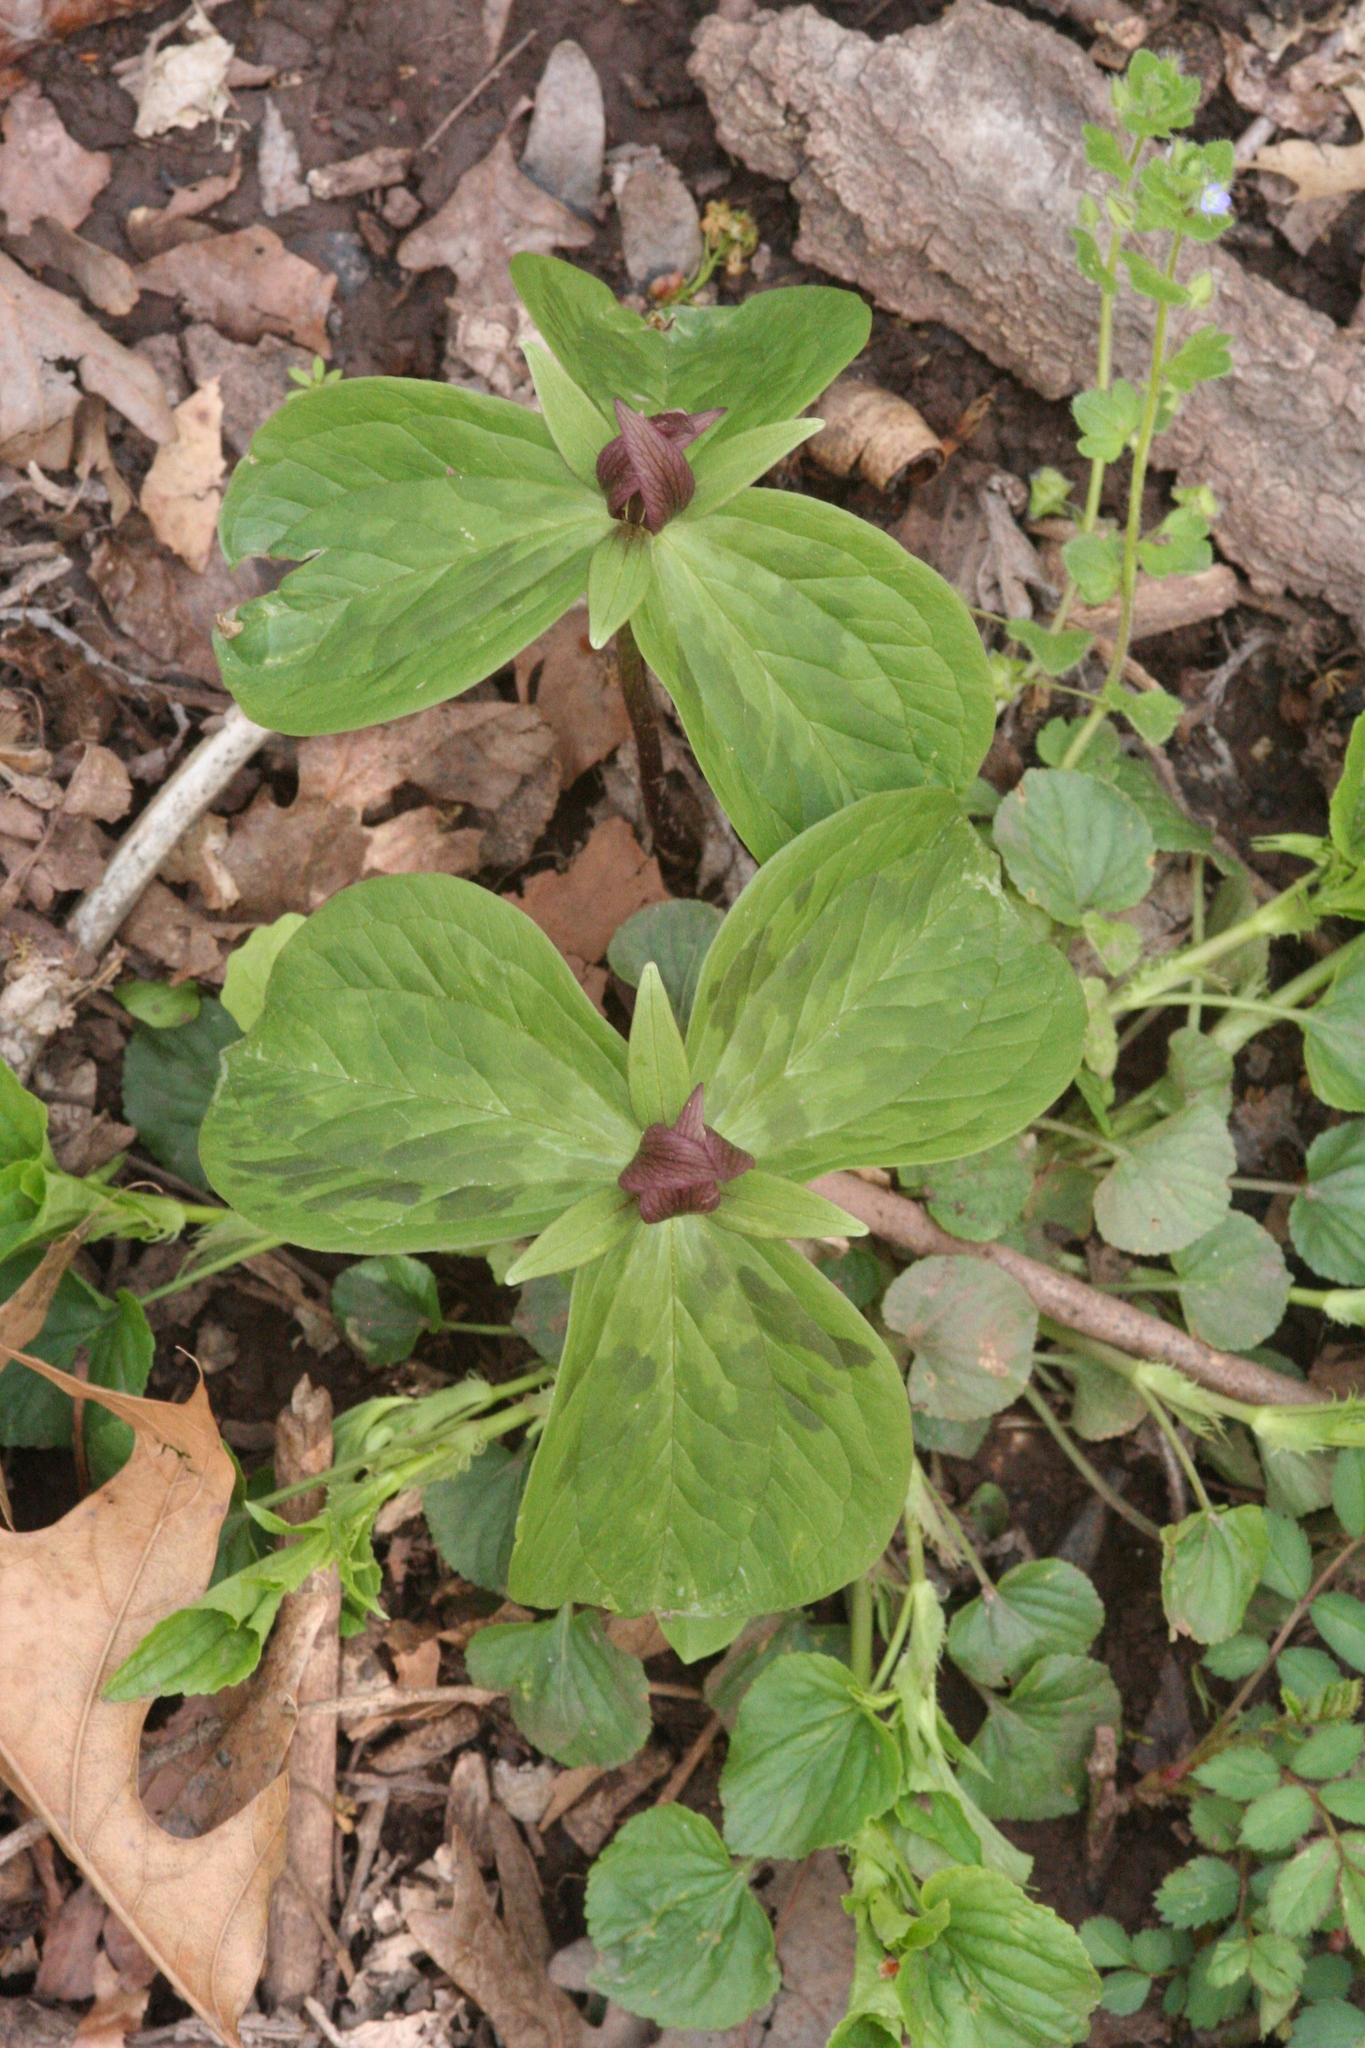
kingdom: Plantae
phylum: Tracheophyta
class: Liliopsida
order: Liliales
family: Melanthiaceae
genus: Trillium
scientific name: Trillium sessile
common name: Sessile trillium
